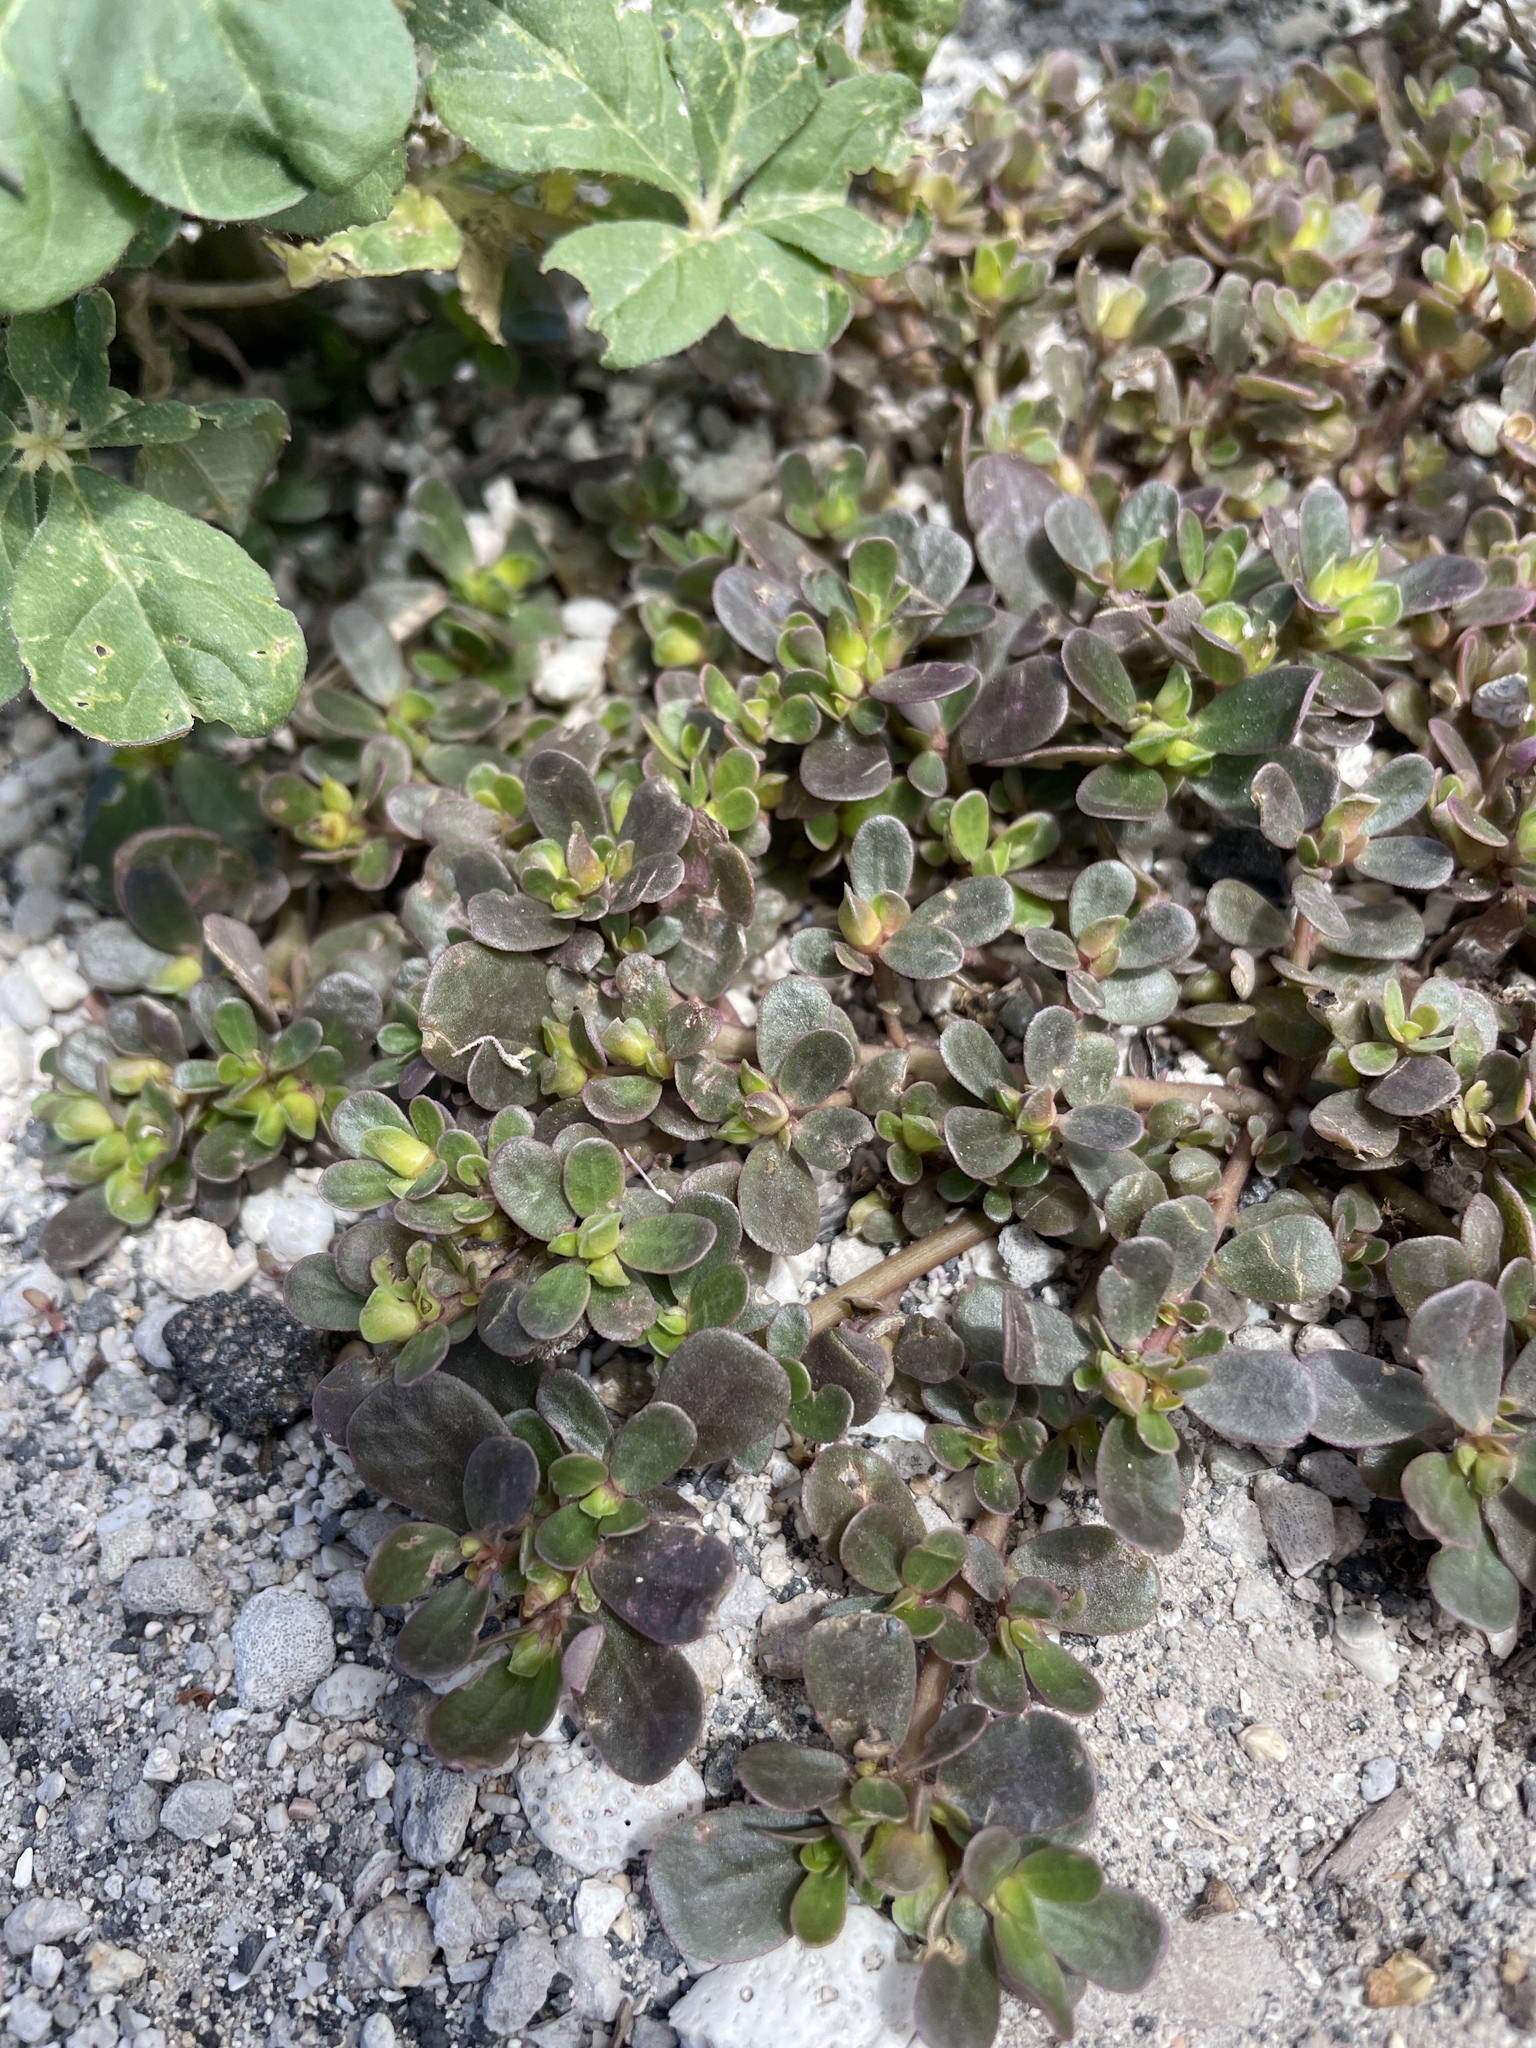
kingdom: Plantae
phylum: Tracheophyta
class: Magnoliopsida
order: Caryophyllales
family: Portulacaceae
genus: Portulaca
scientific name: Portulaca oleracea
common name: Common purslane
